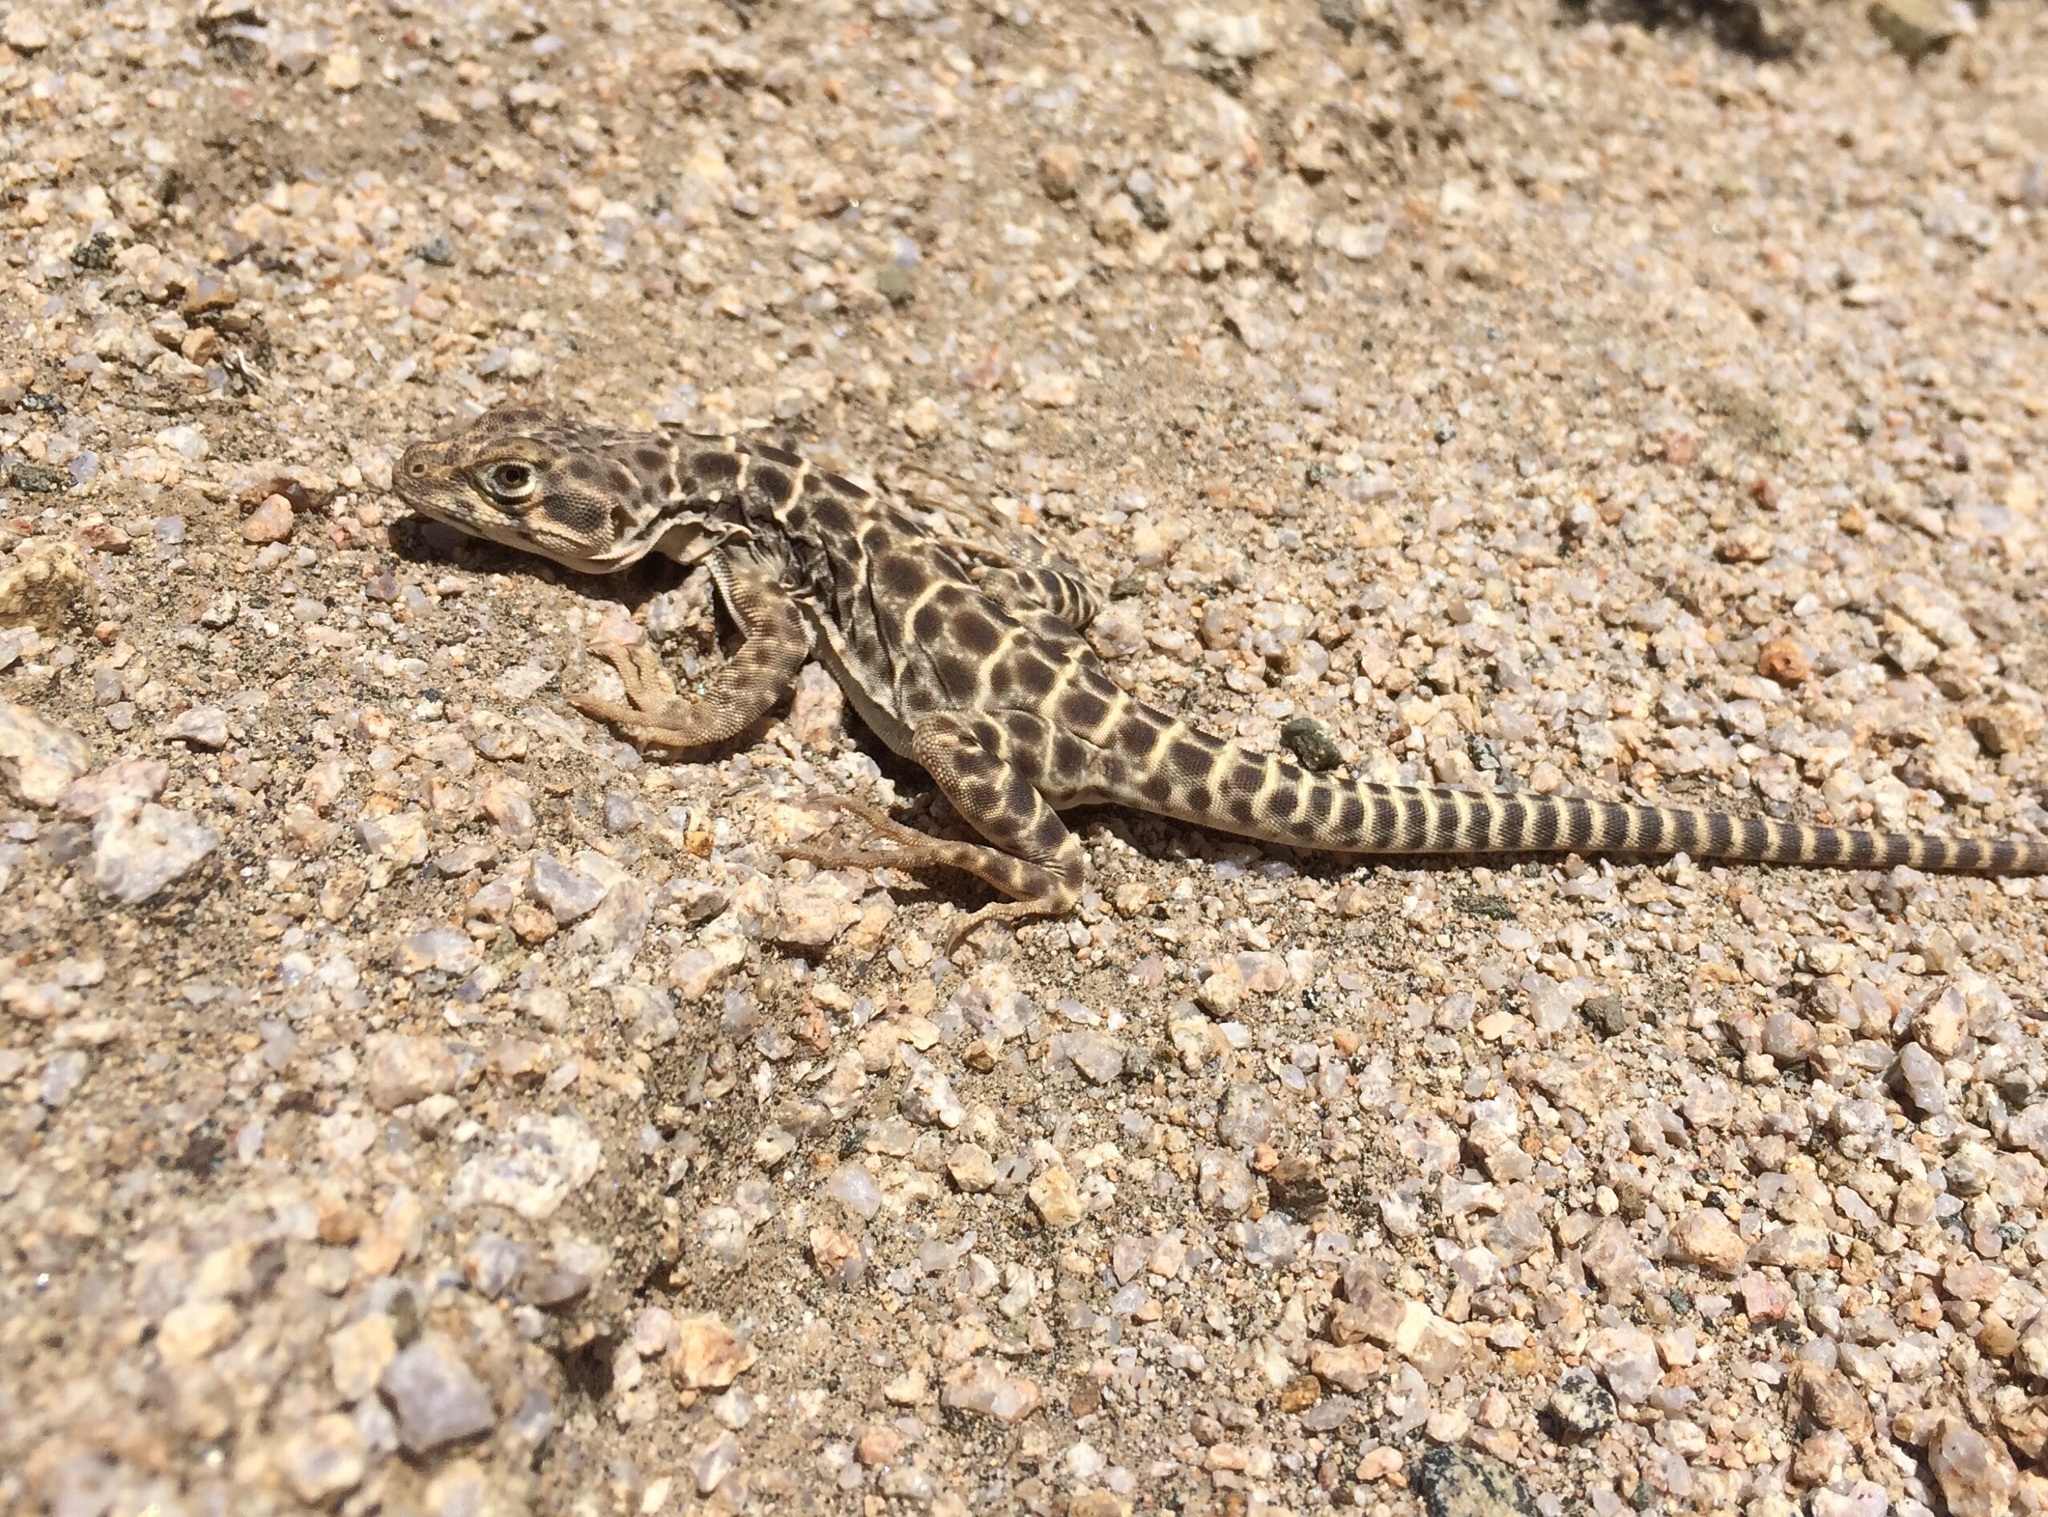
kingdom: Animalia
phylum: Chordata
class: Squamata
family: Crotaphytidae
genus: Gambelia
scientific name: Gambelia wislizenii
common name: Longnose leopard lizard
